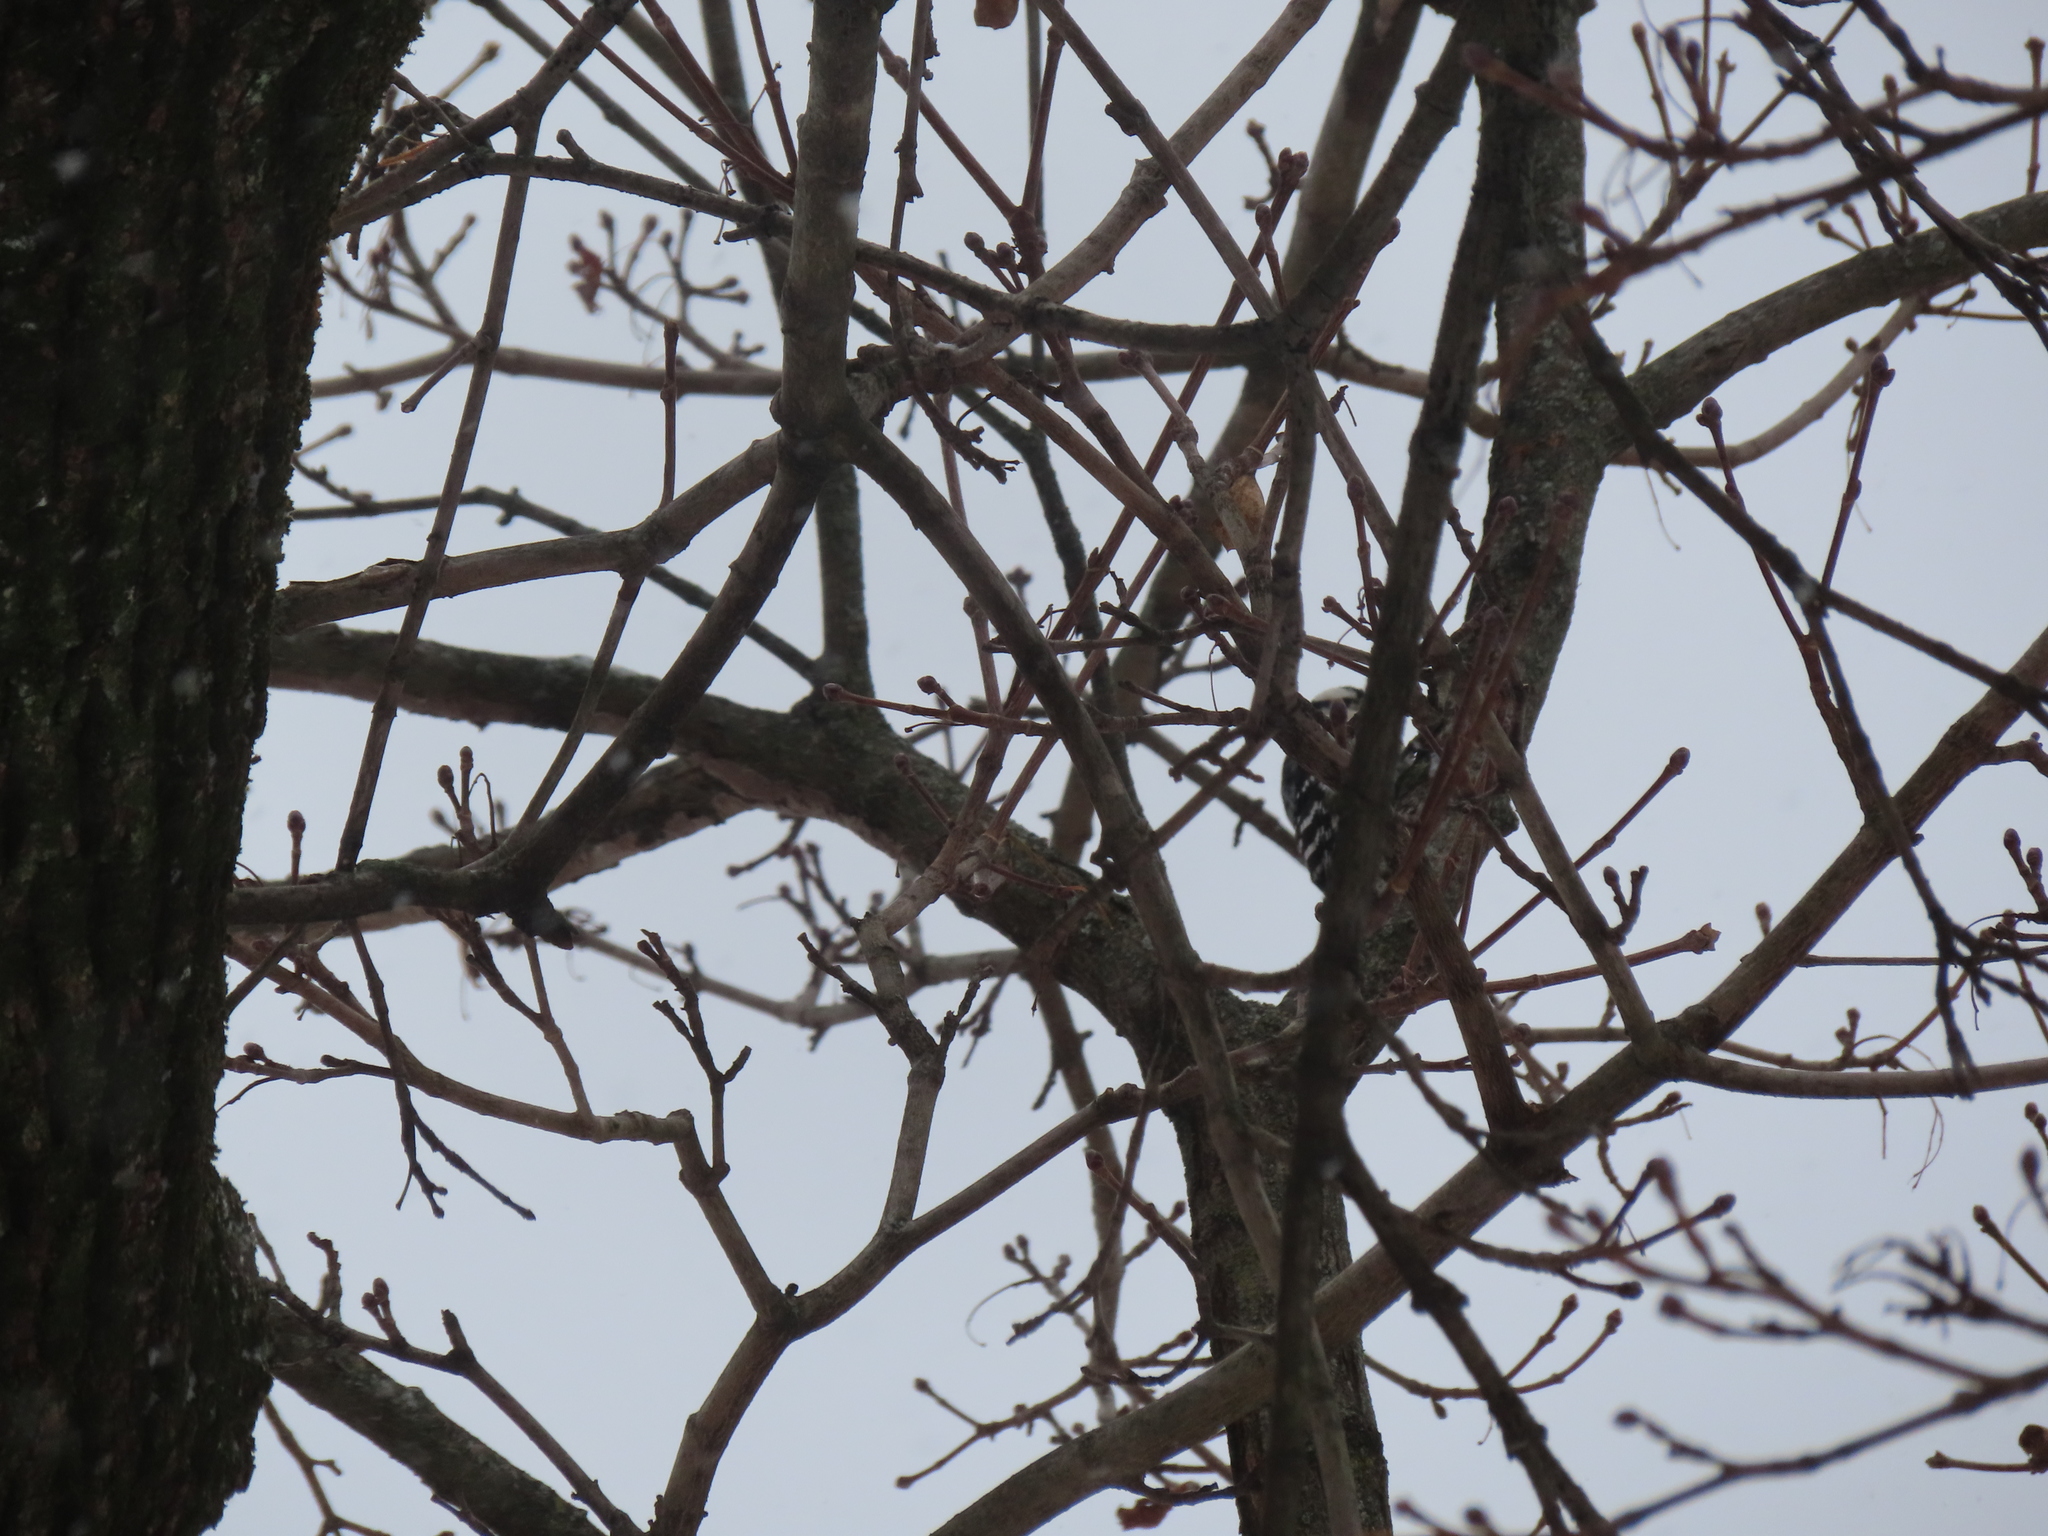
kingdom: Animalia
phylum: Chordata
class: Aves
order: Piciformes
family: Picidae
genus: Dryobates
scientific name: Dryobates pubescens
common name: Downy woodpecker
